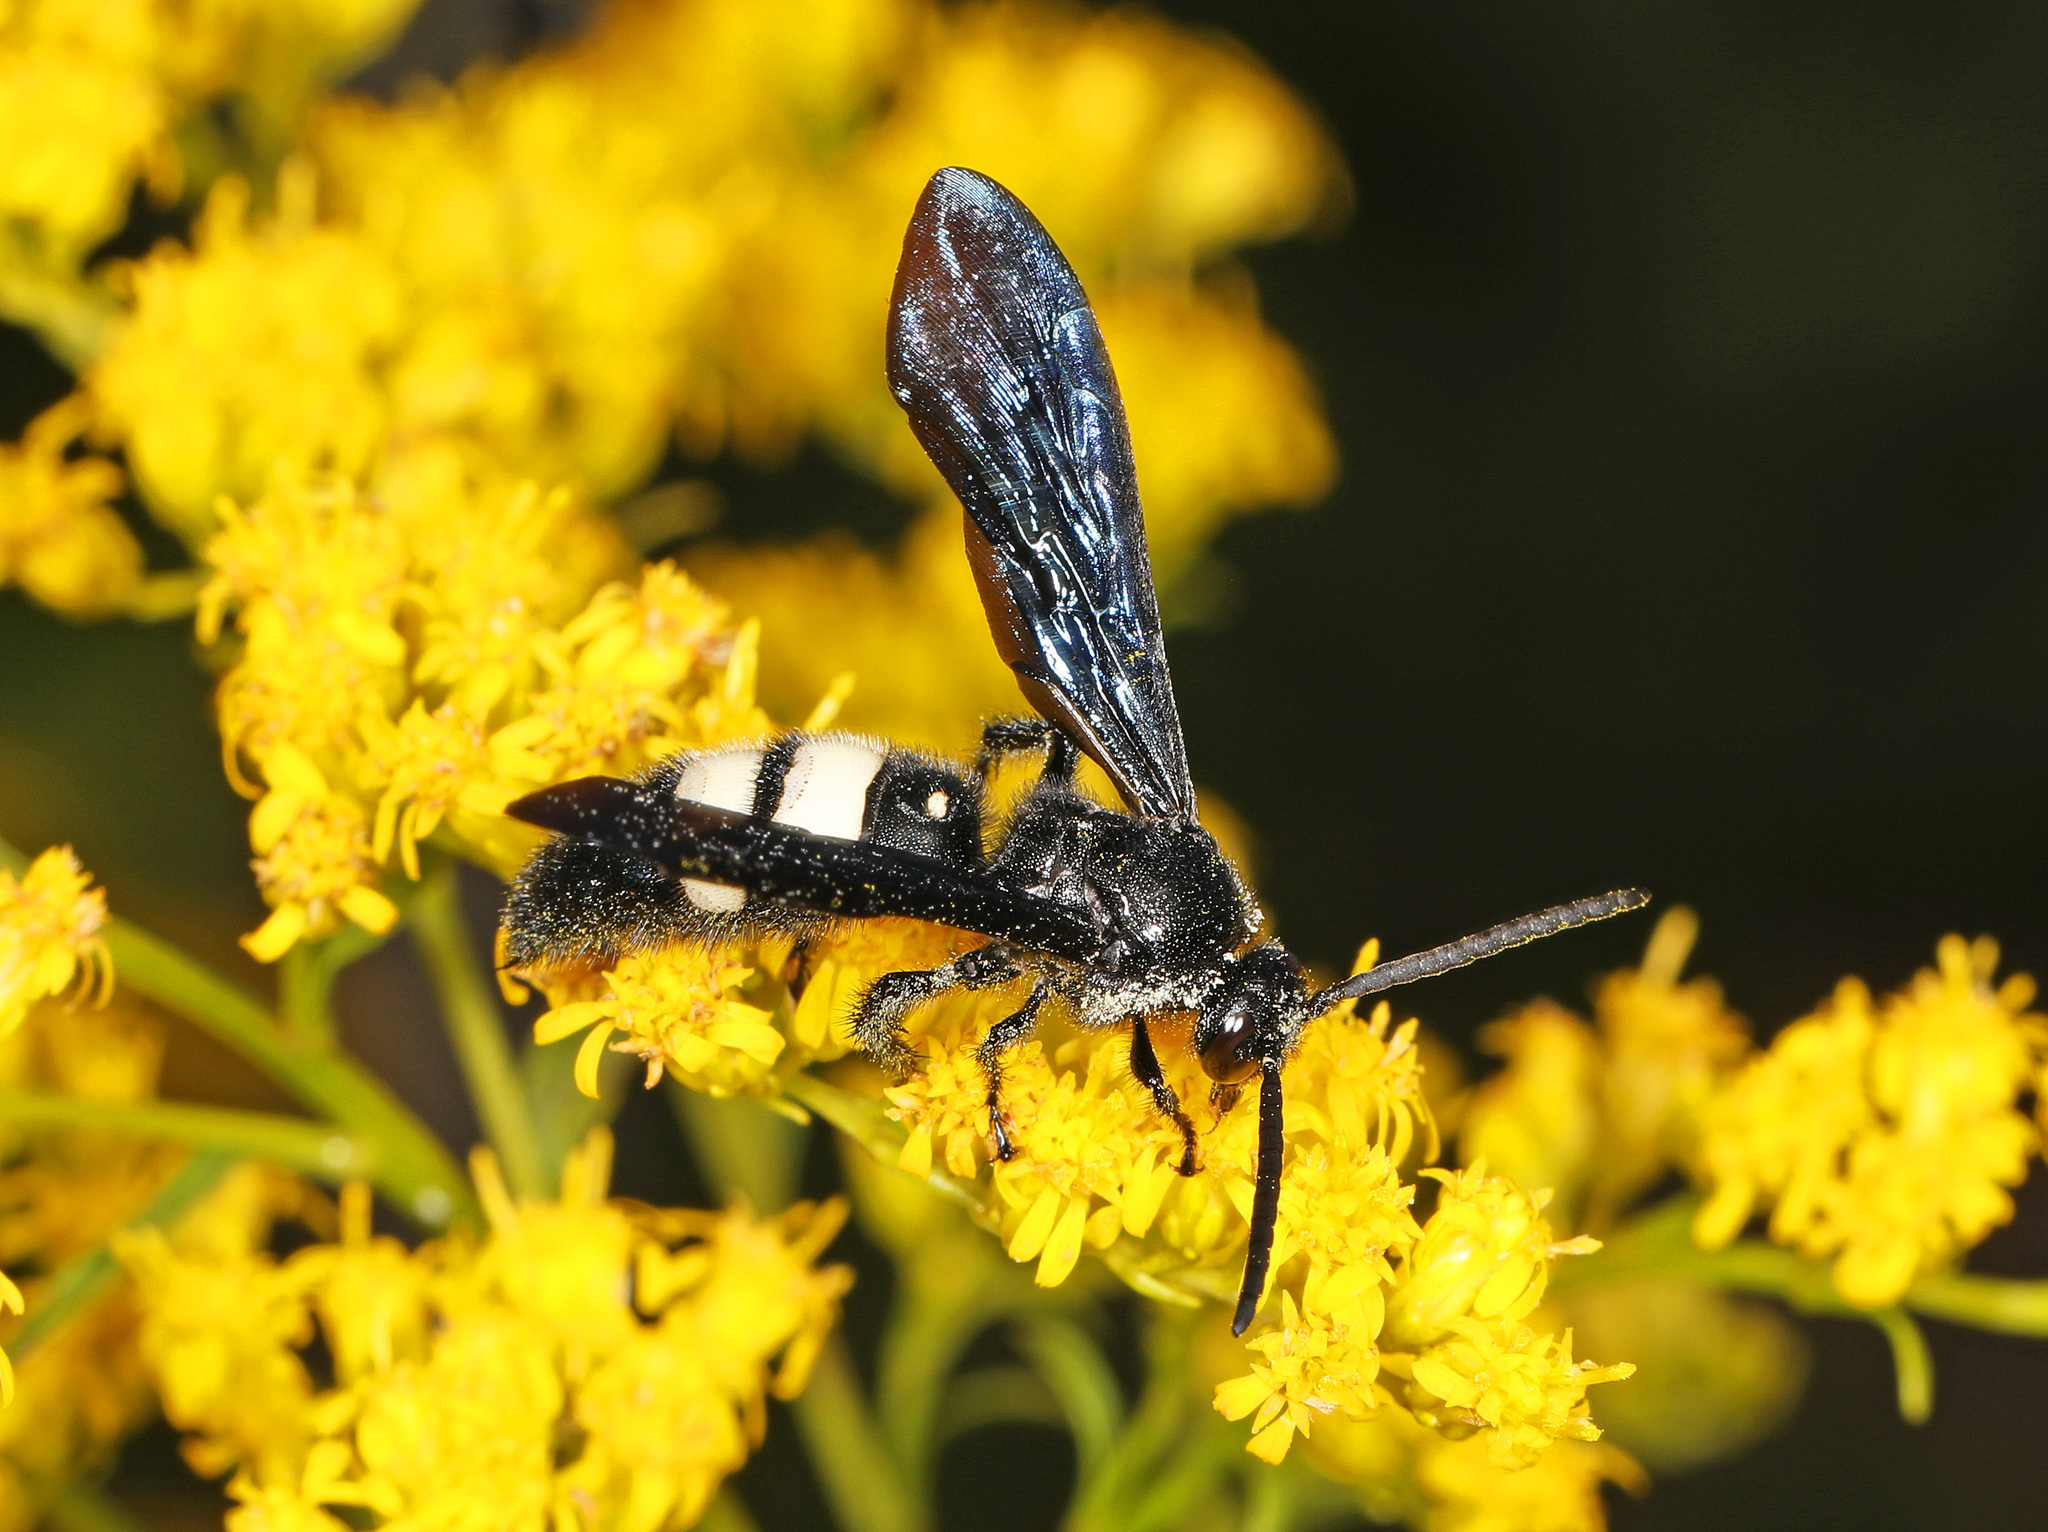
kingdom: Animalia
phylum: Arthropoda
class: Insecta
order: Hymenoptera
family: Scoliidae
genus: Scolia
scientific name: Scolia bicincta
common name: Double-banded scoliid wasp
